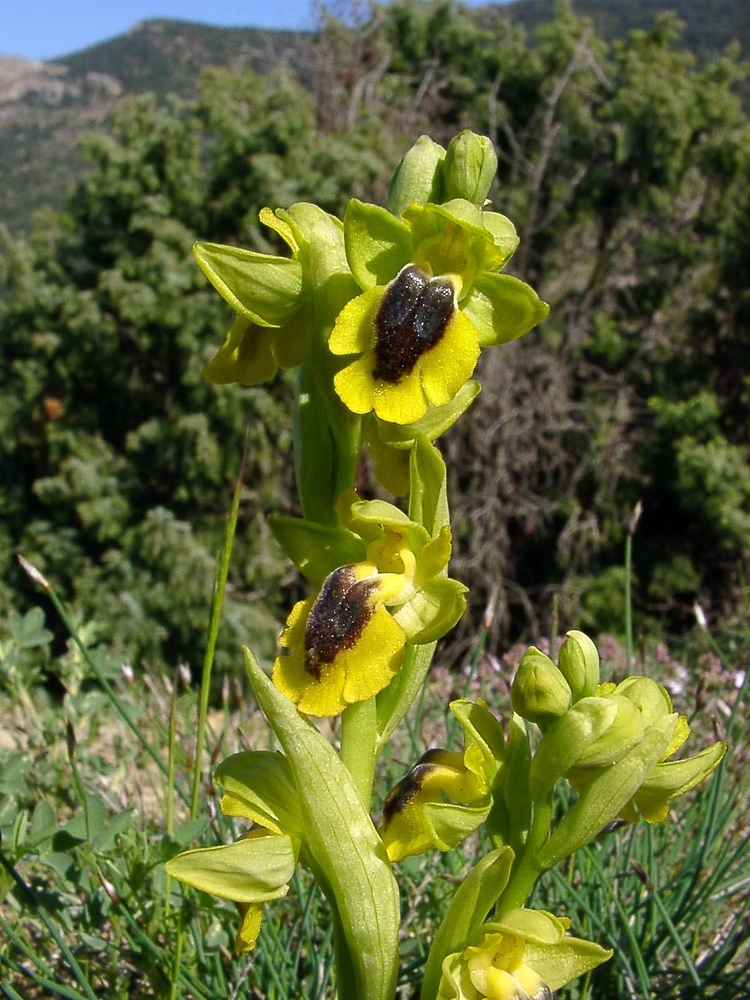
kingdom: Plantae
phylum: Tracheophyta
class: Liliopsida
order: Asparagales
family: Orchidaceae
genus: Ophrys
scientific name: Ophrys lutea
